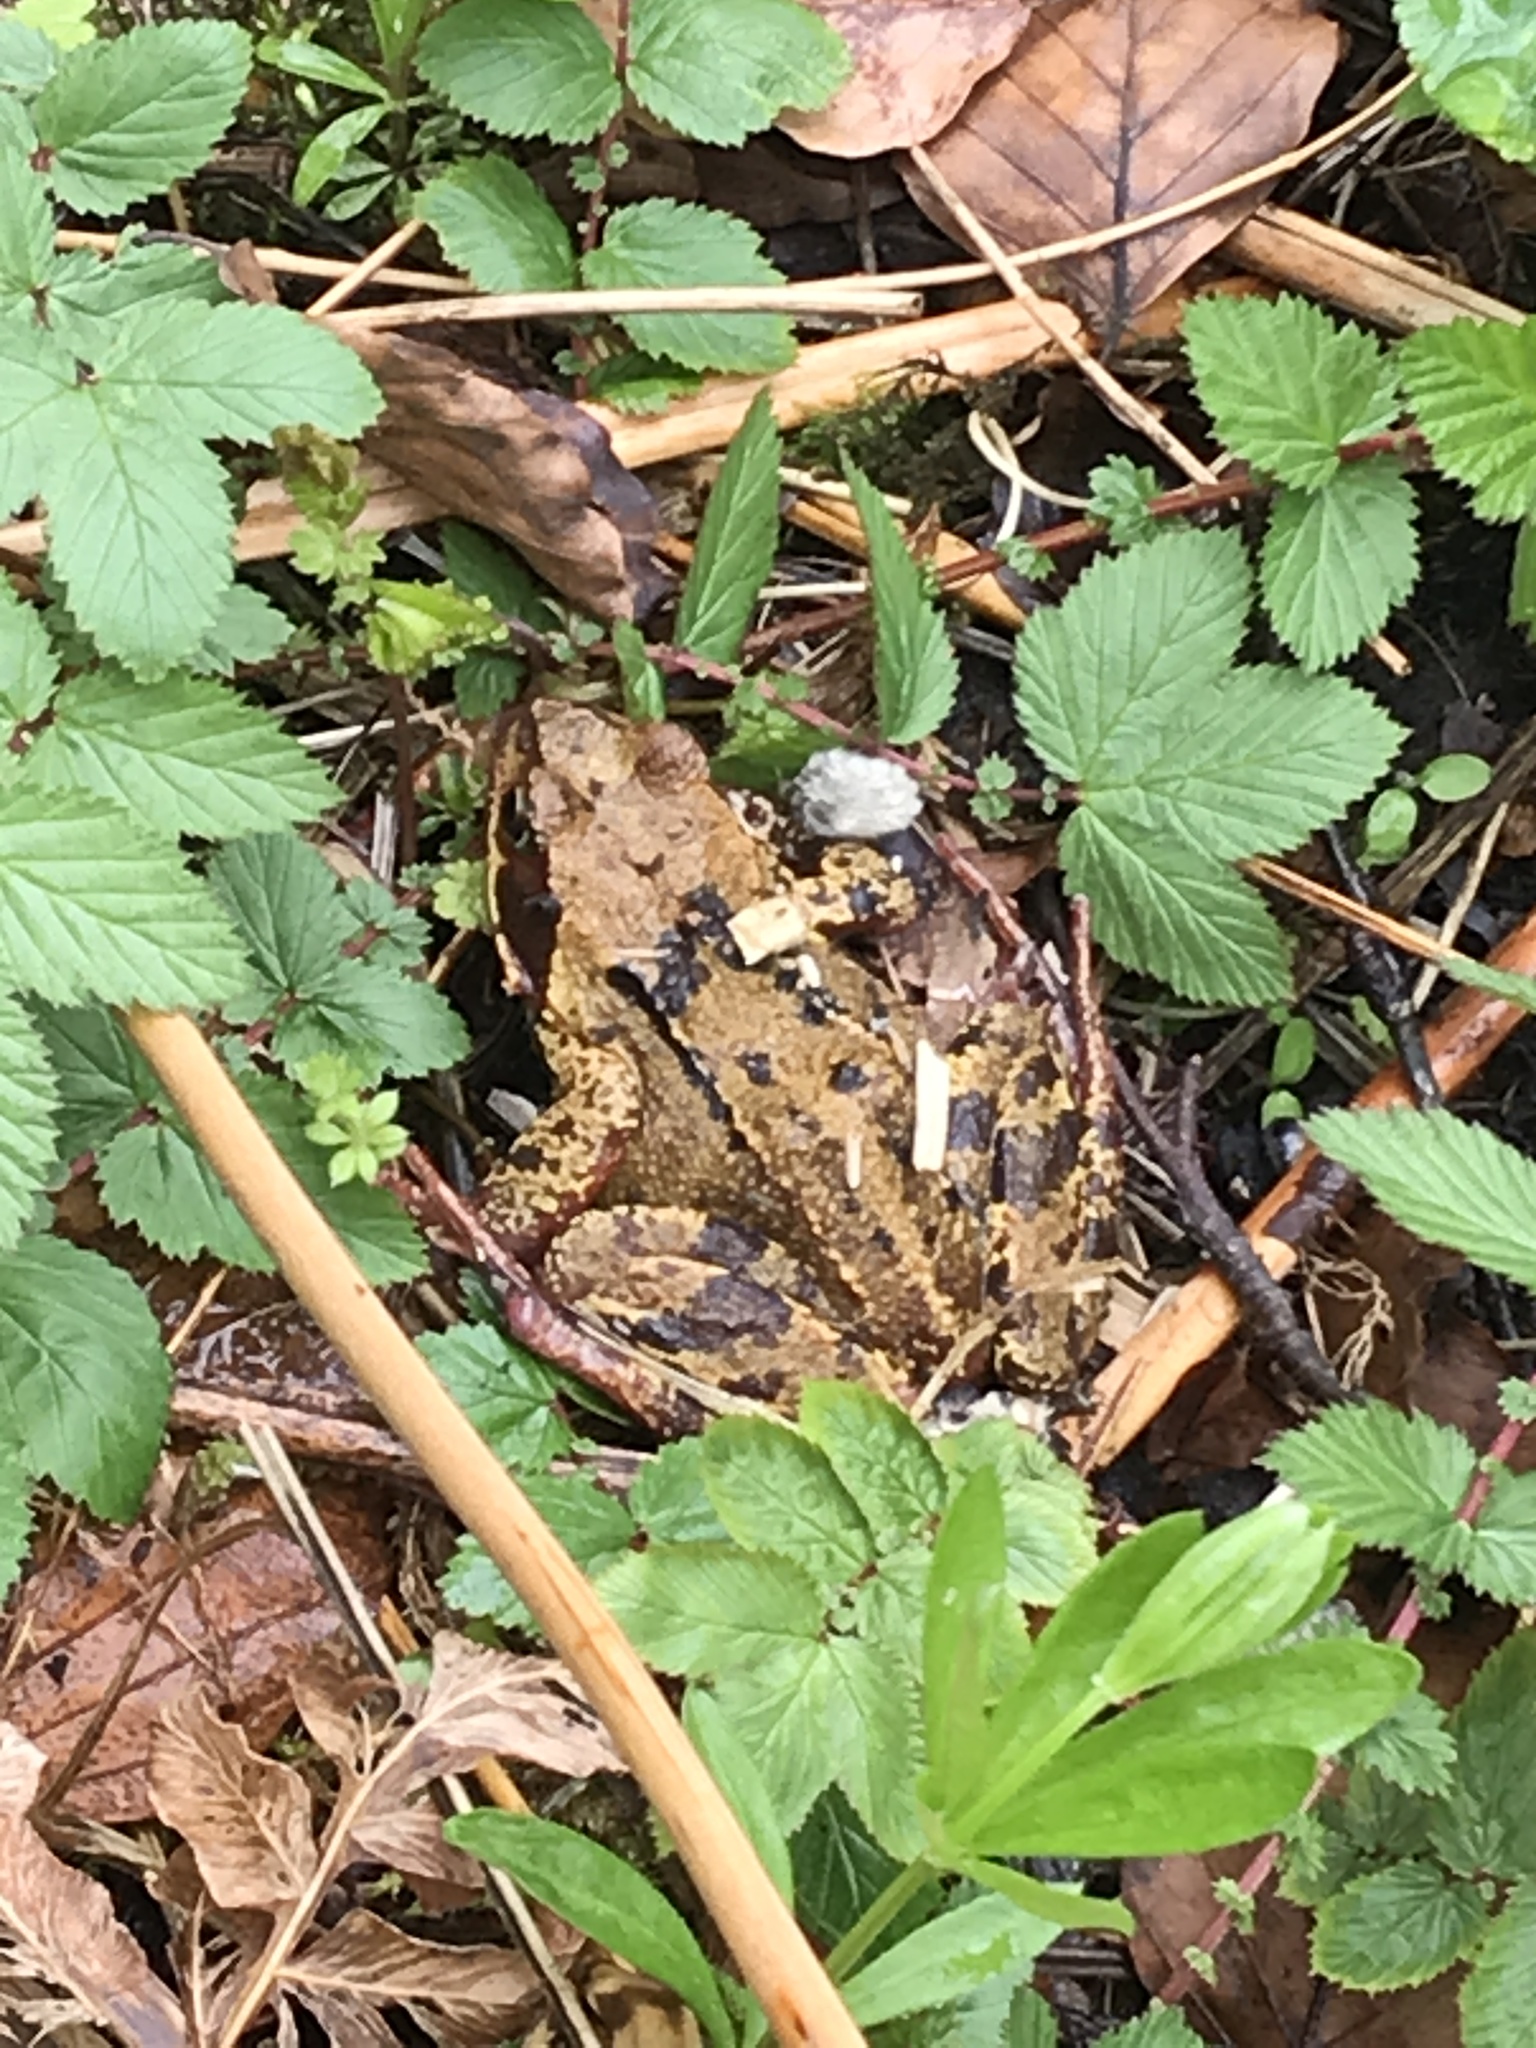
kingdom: Animalia
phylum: Chordata
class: Amphibia
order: Anura
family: Ranidae
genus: Rana
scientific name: Rana temporaria
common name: Common frog
